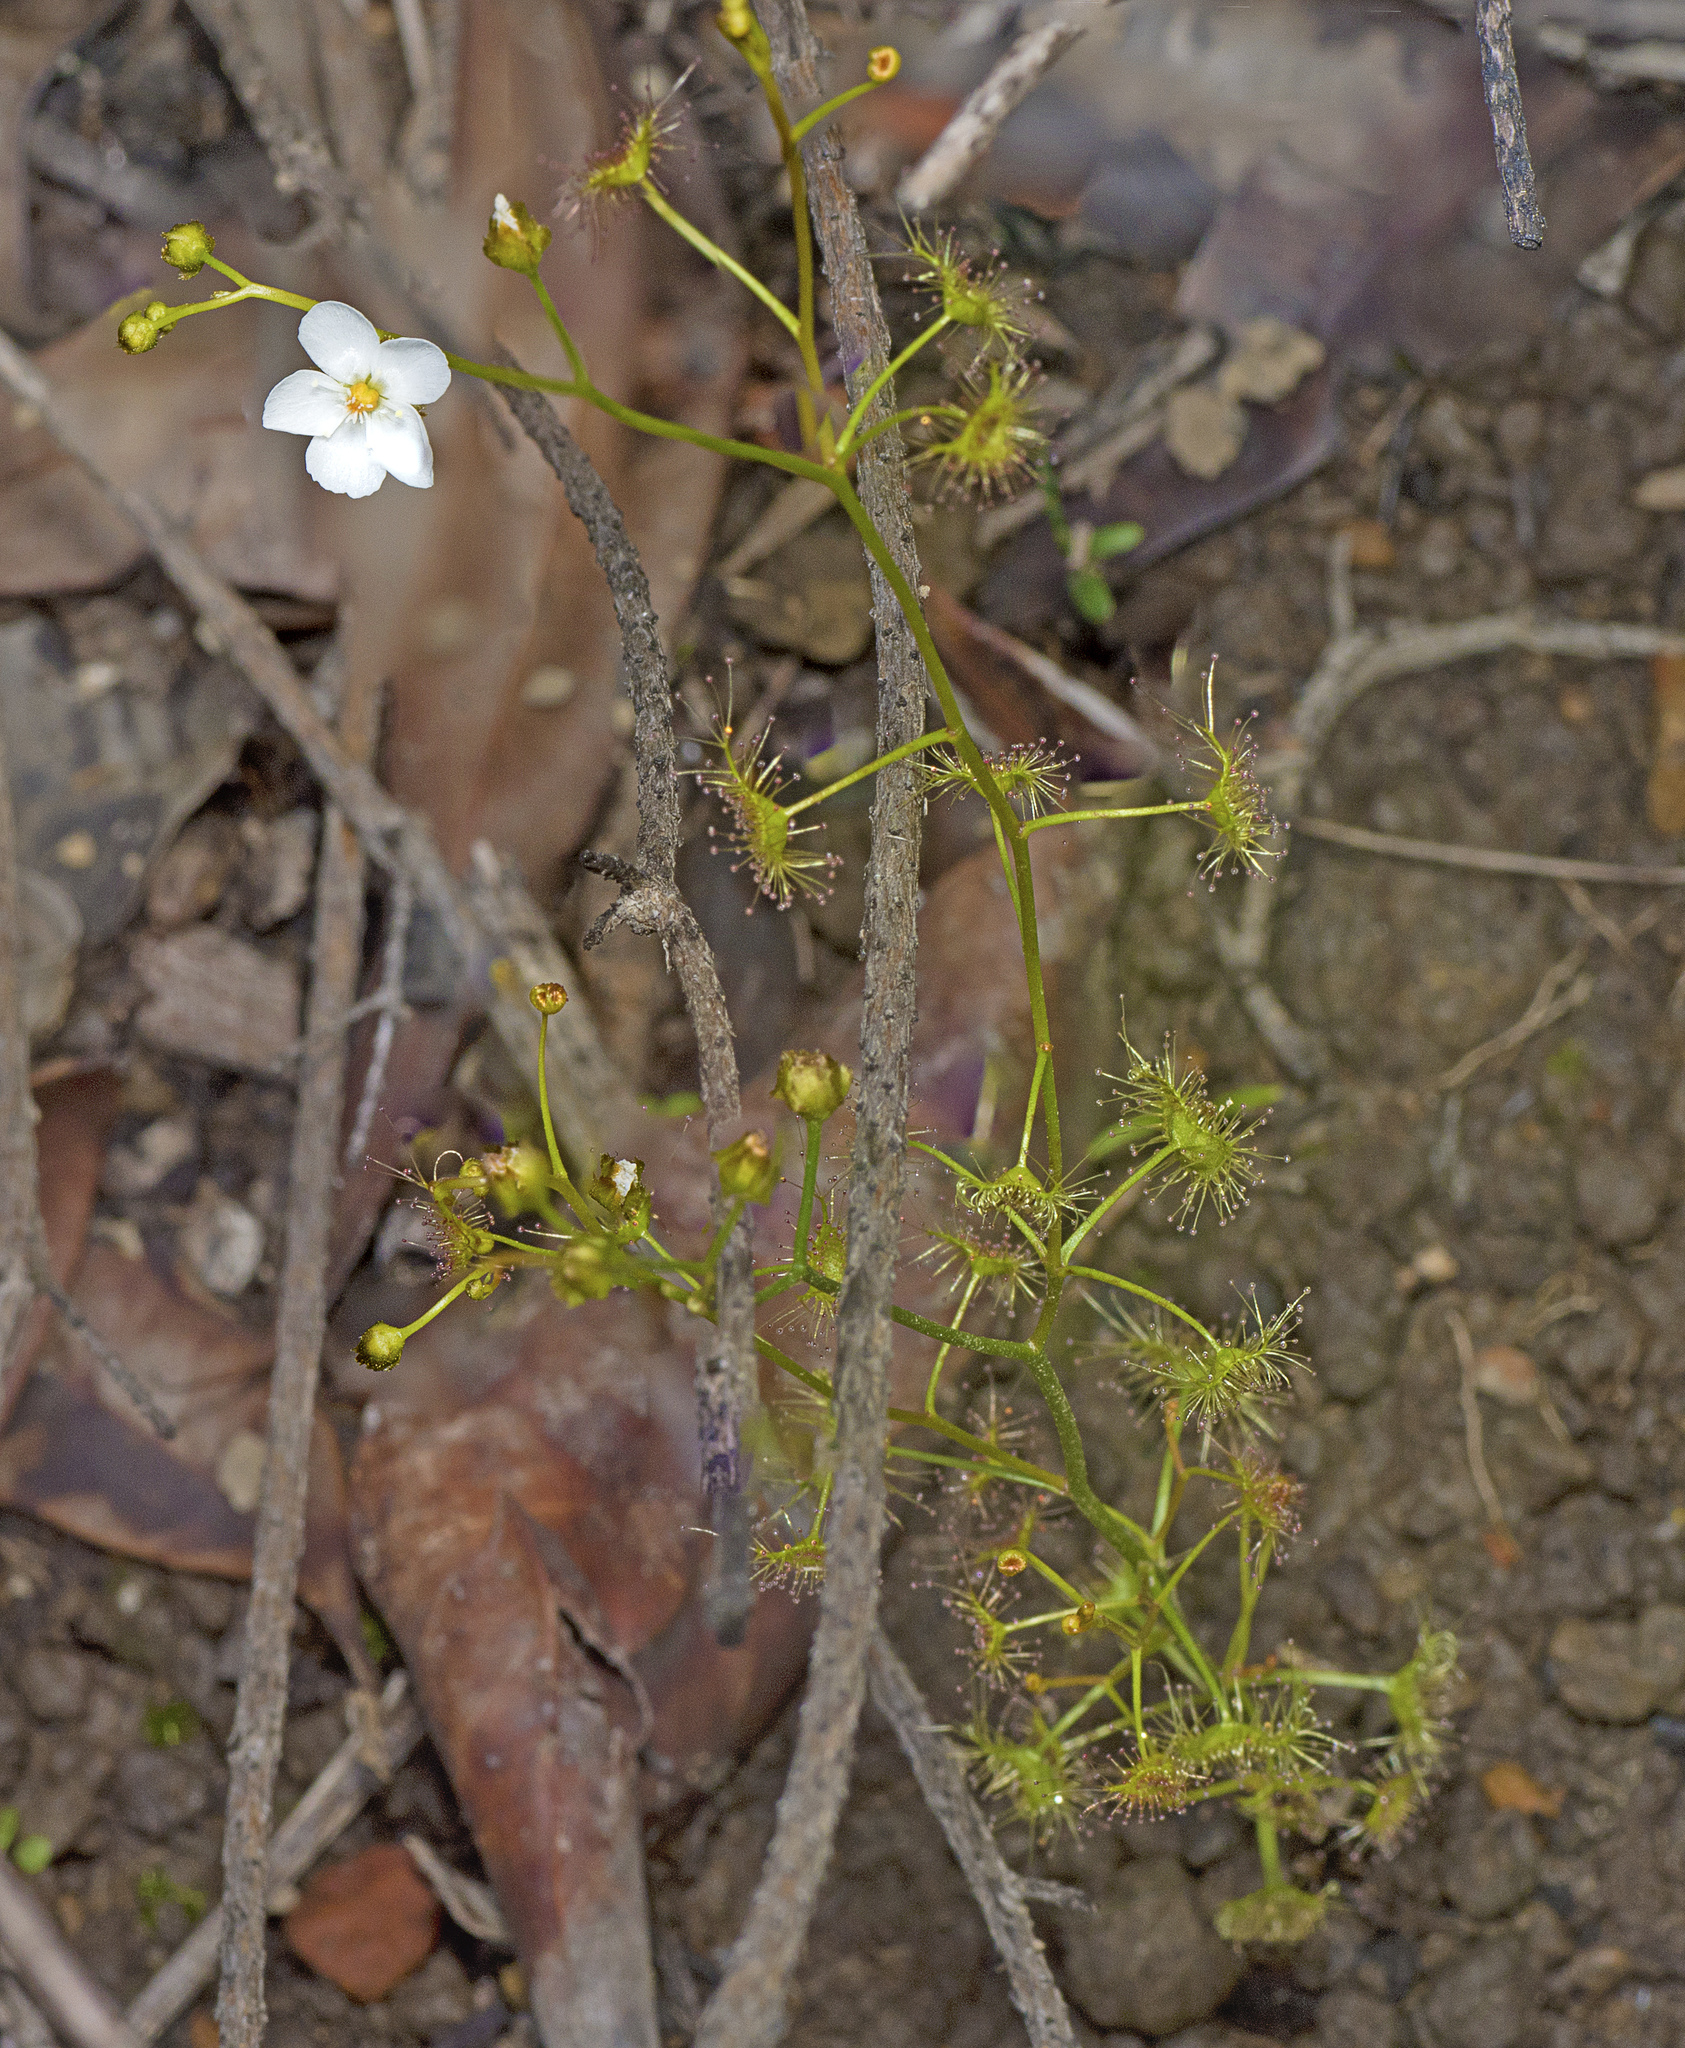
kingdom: Plantae
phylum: Tracheophyta
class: Magnoliopsida
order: Caryophyllales
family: Droseraceae
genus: Drosera
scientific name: Drosera peltata
